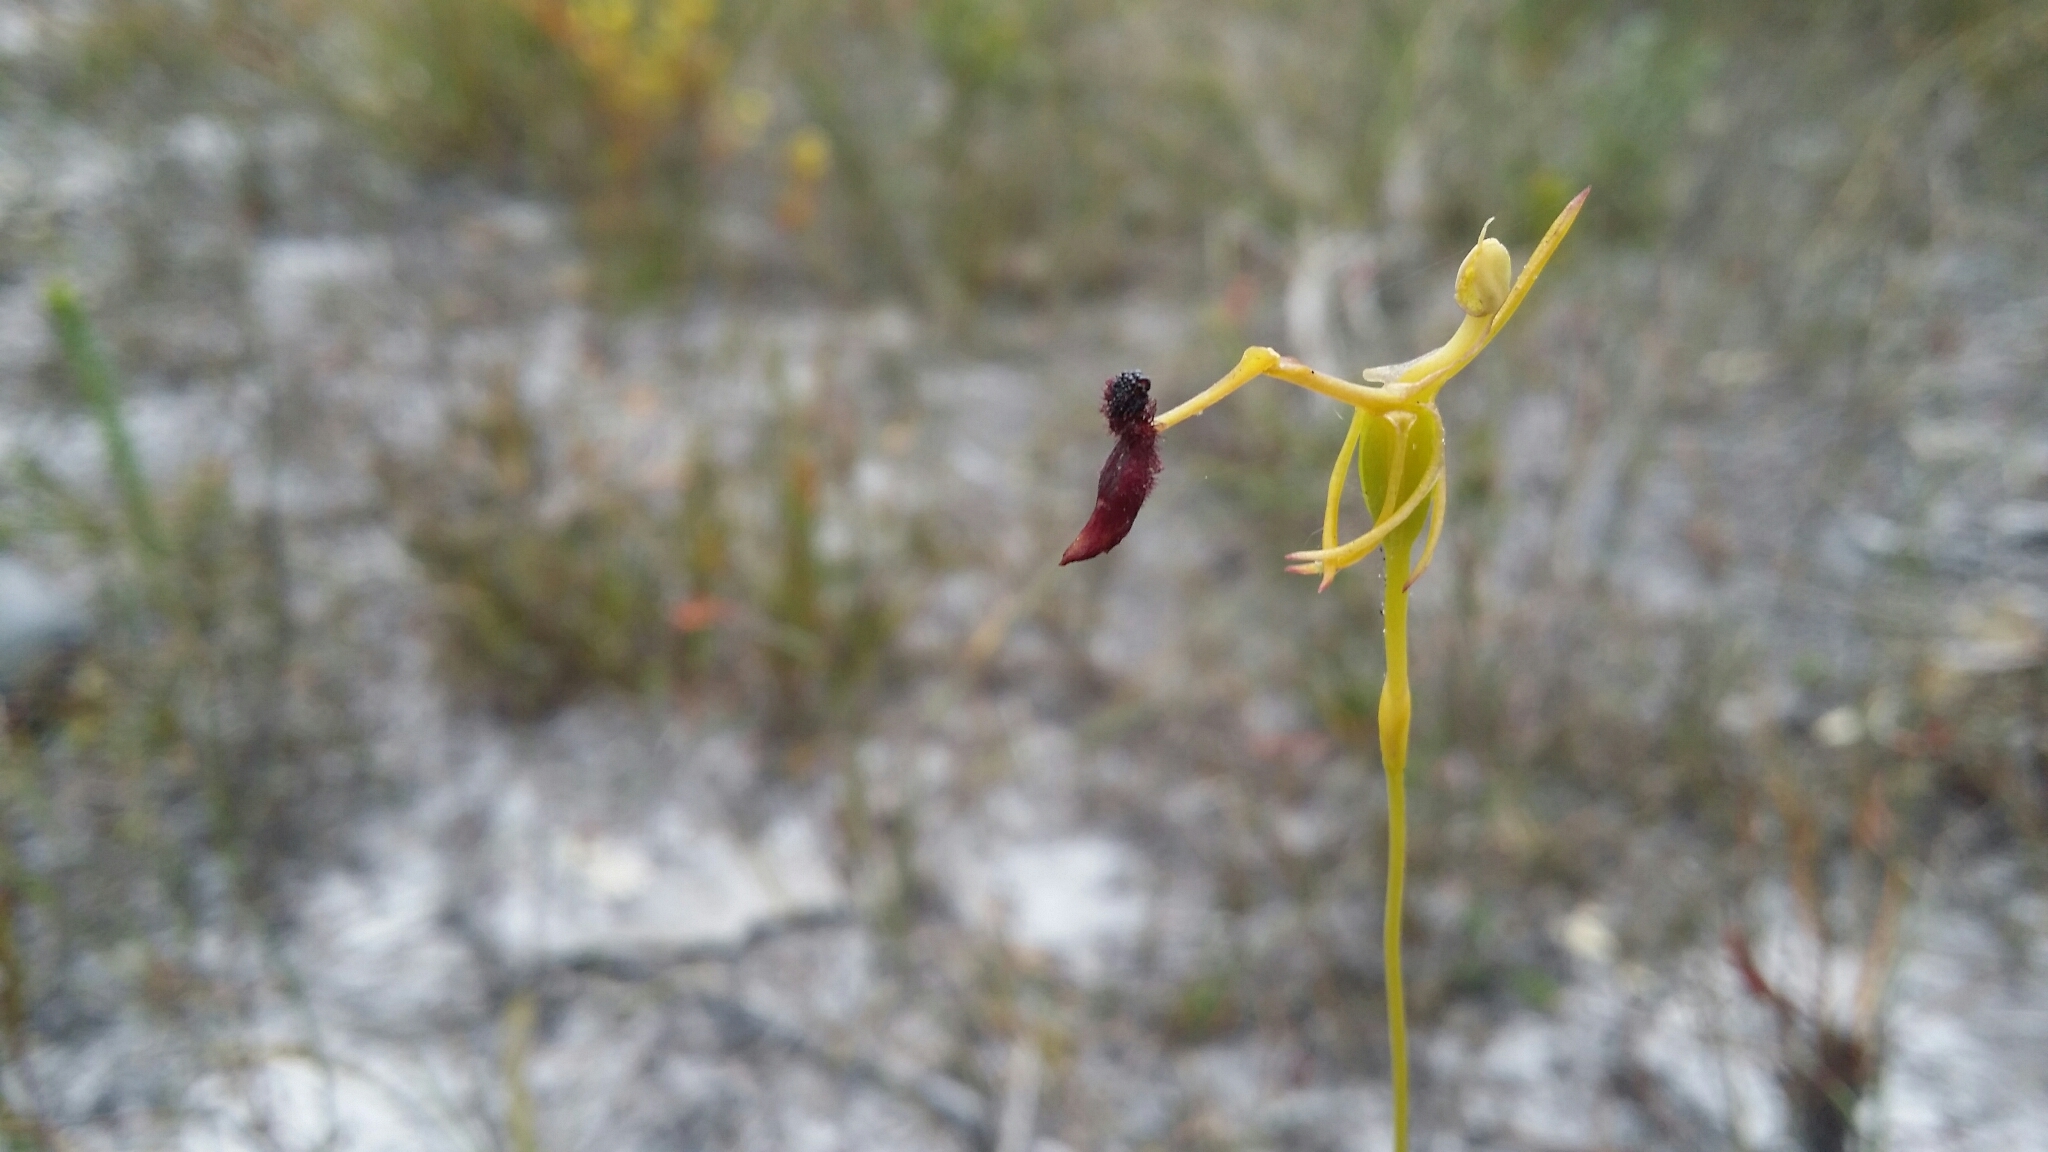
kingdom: Plantae
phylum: Tracheophyta
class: Liliopsida
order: Asparagales
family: Orchidaceae
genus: Drakaea
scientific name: Drakaea thynniphila
